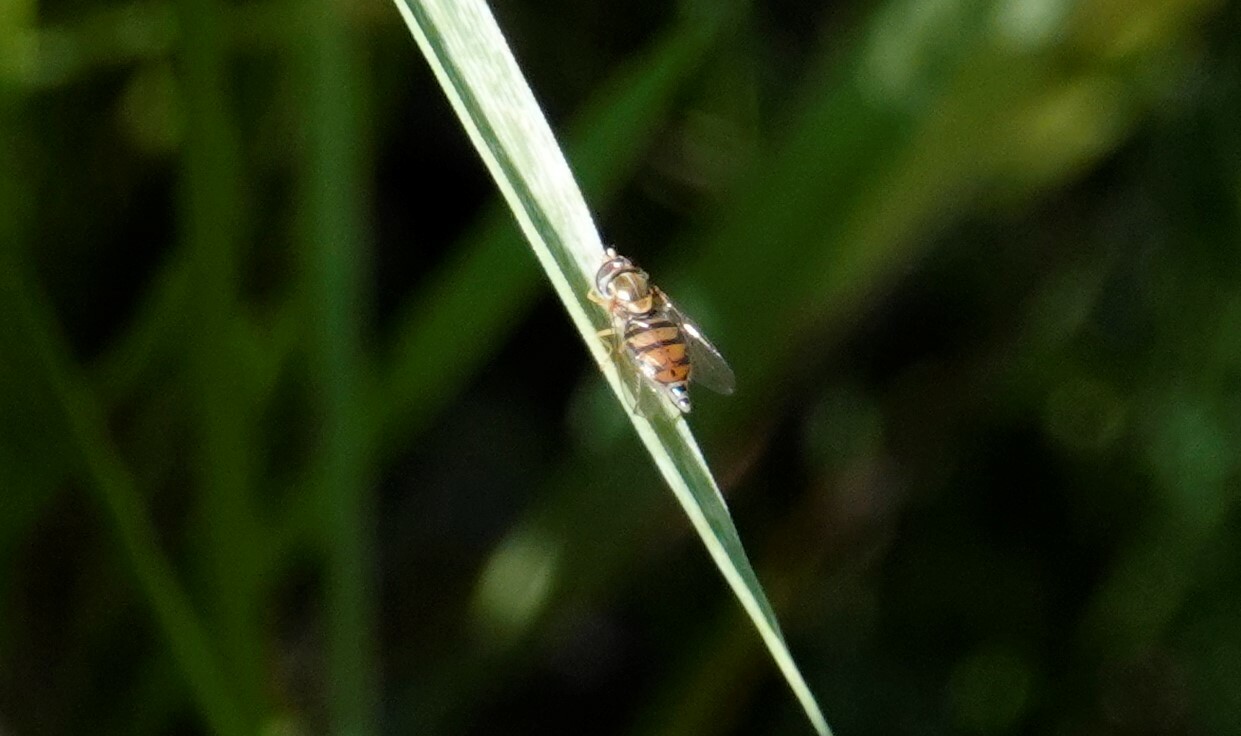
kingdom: Animalia
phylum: Arthropoda
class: Insecta
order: Diptera
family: Syrphidae
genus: Toxomerus
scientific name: Toxomerus marginatus
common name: Syrphid fly
